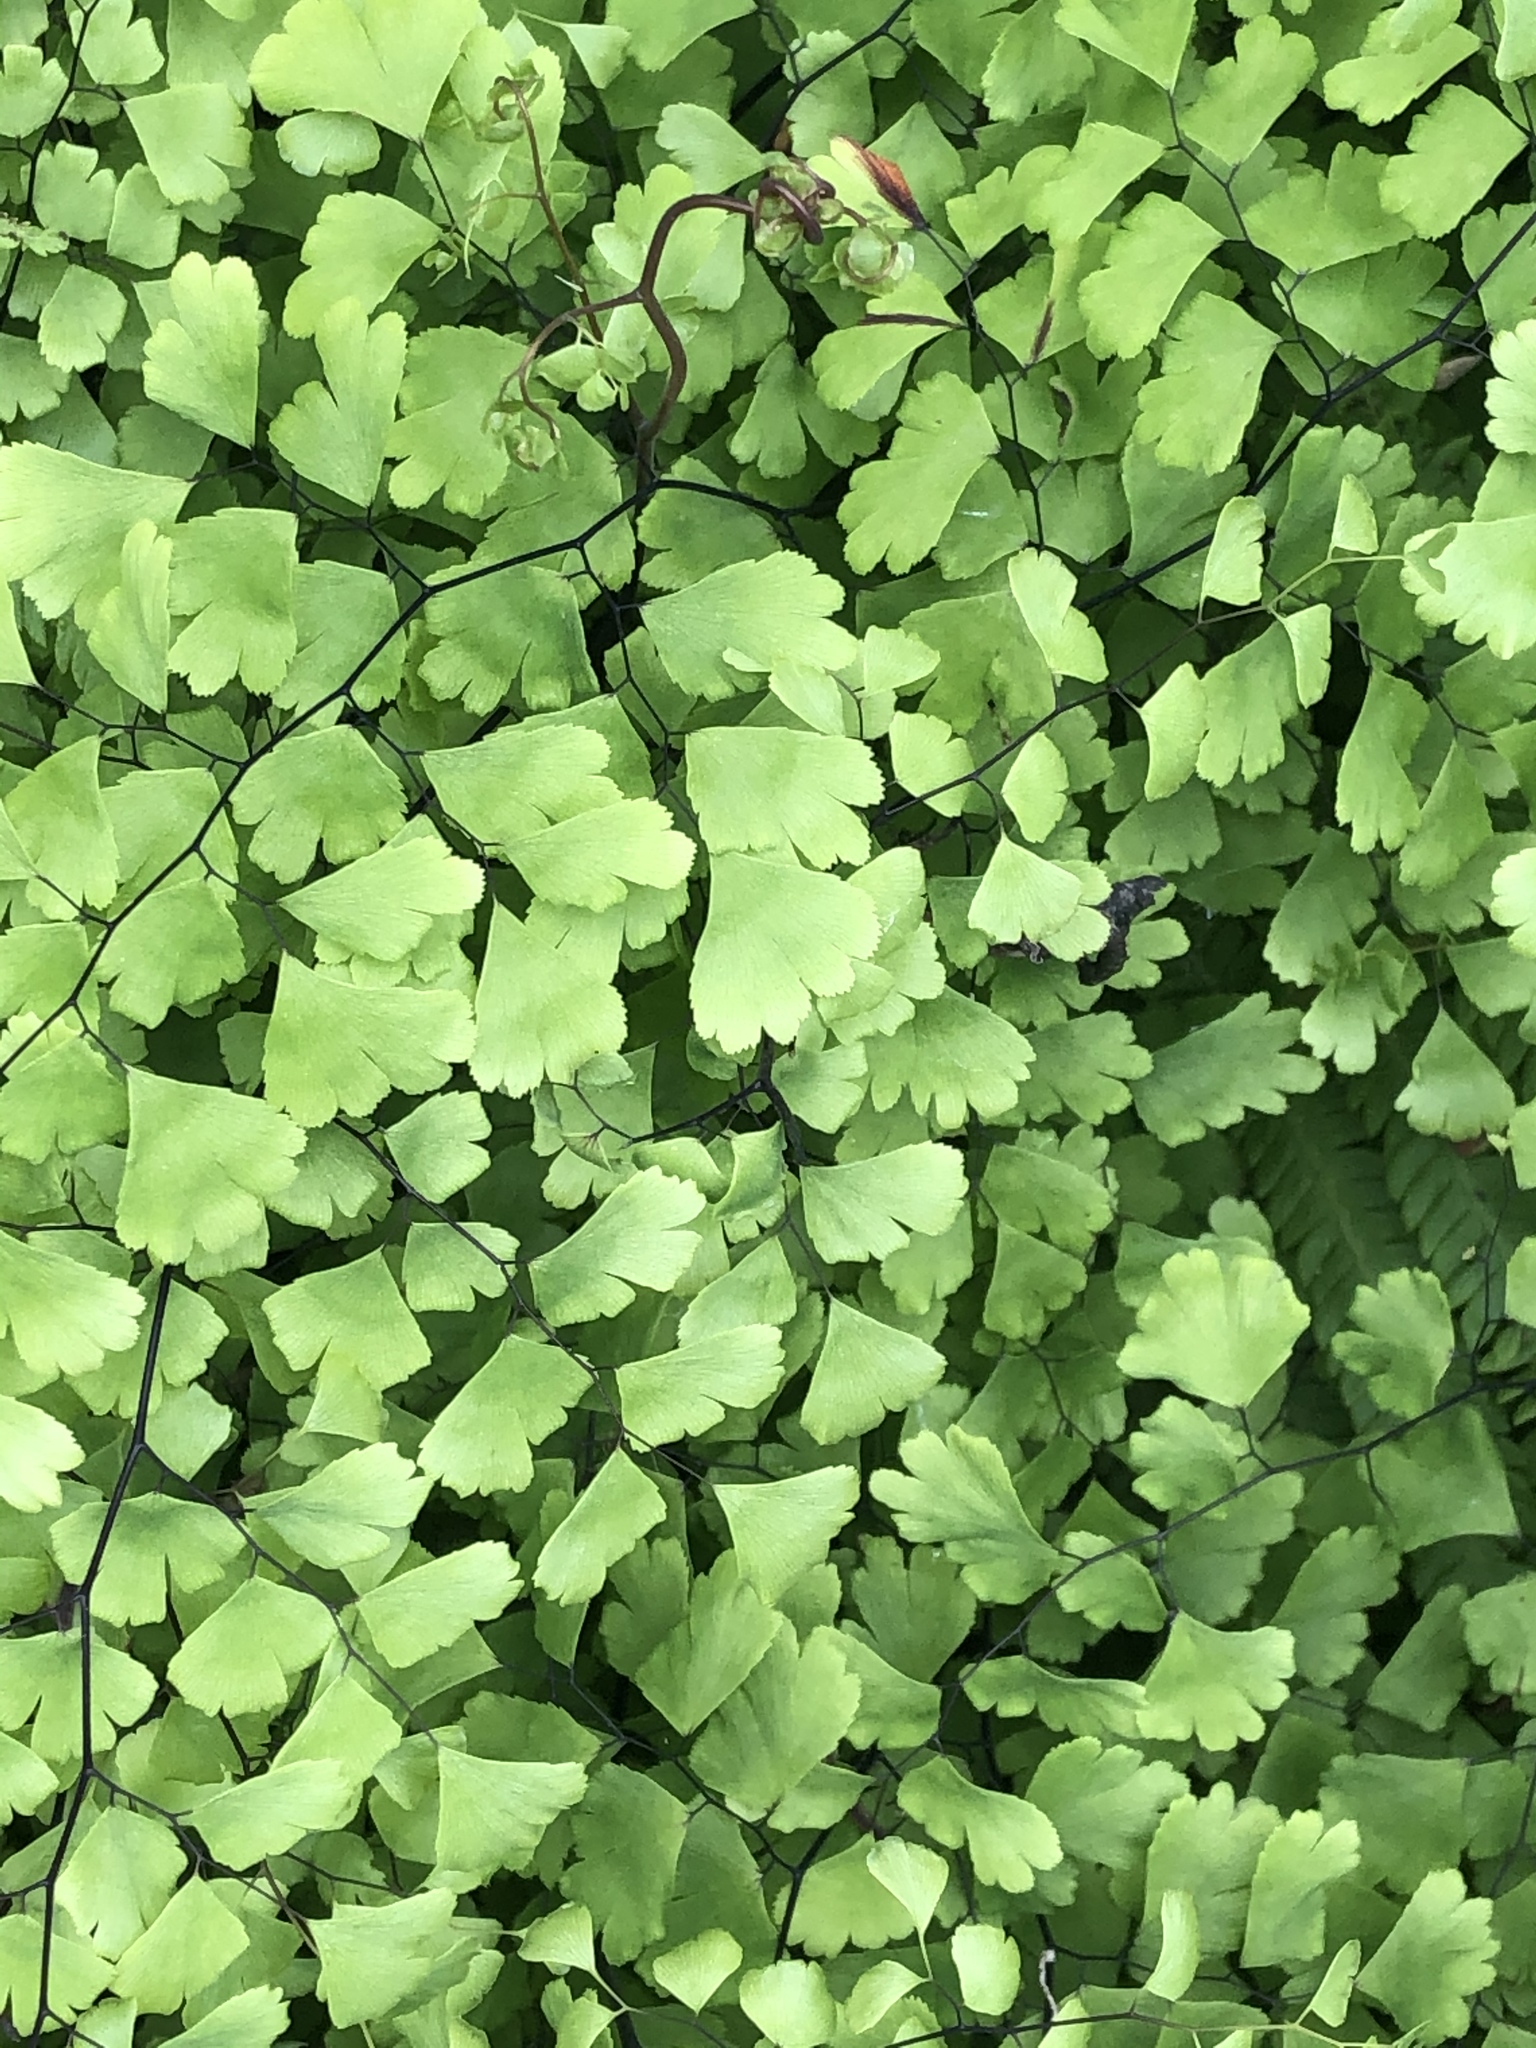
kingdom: Plantae
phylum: Tracheophyta
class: Polypodiopsida
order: Polypodiales
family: Pteridaceae
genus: Adiantum
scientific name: Adiantum capillus-veneris
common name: Maidenhair fern
